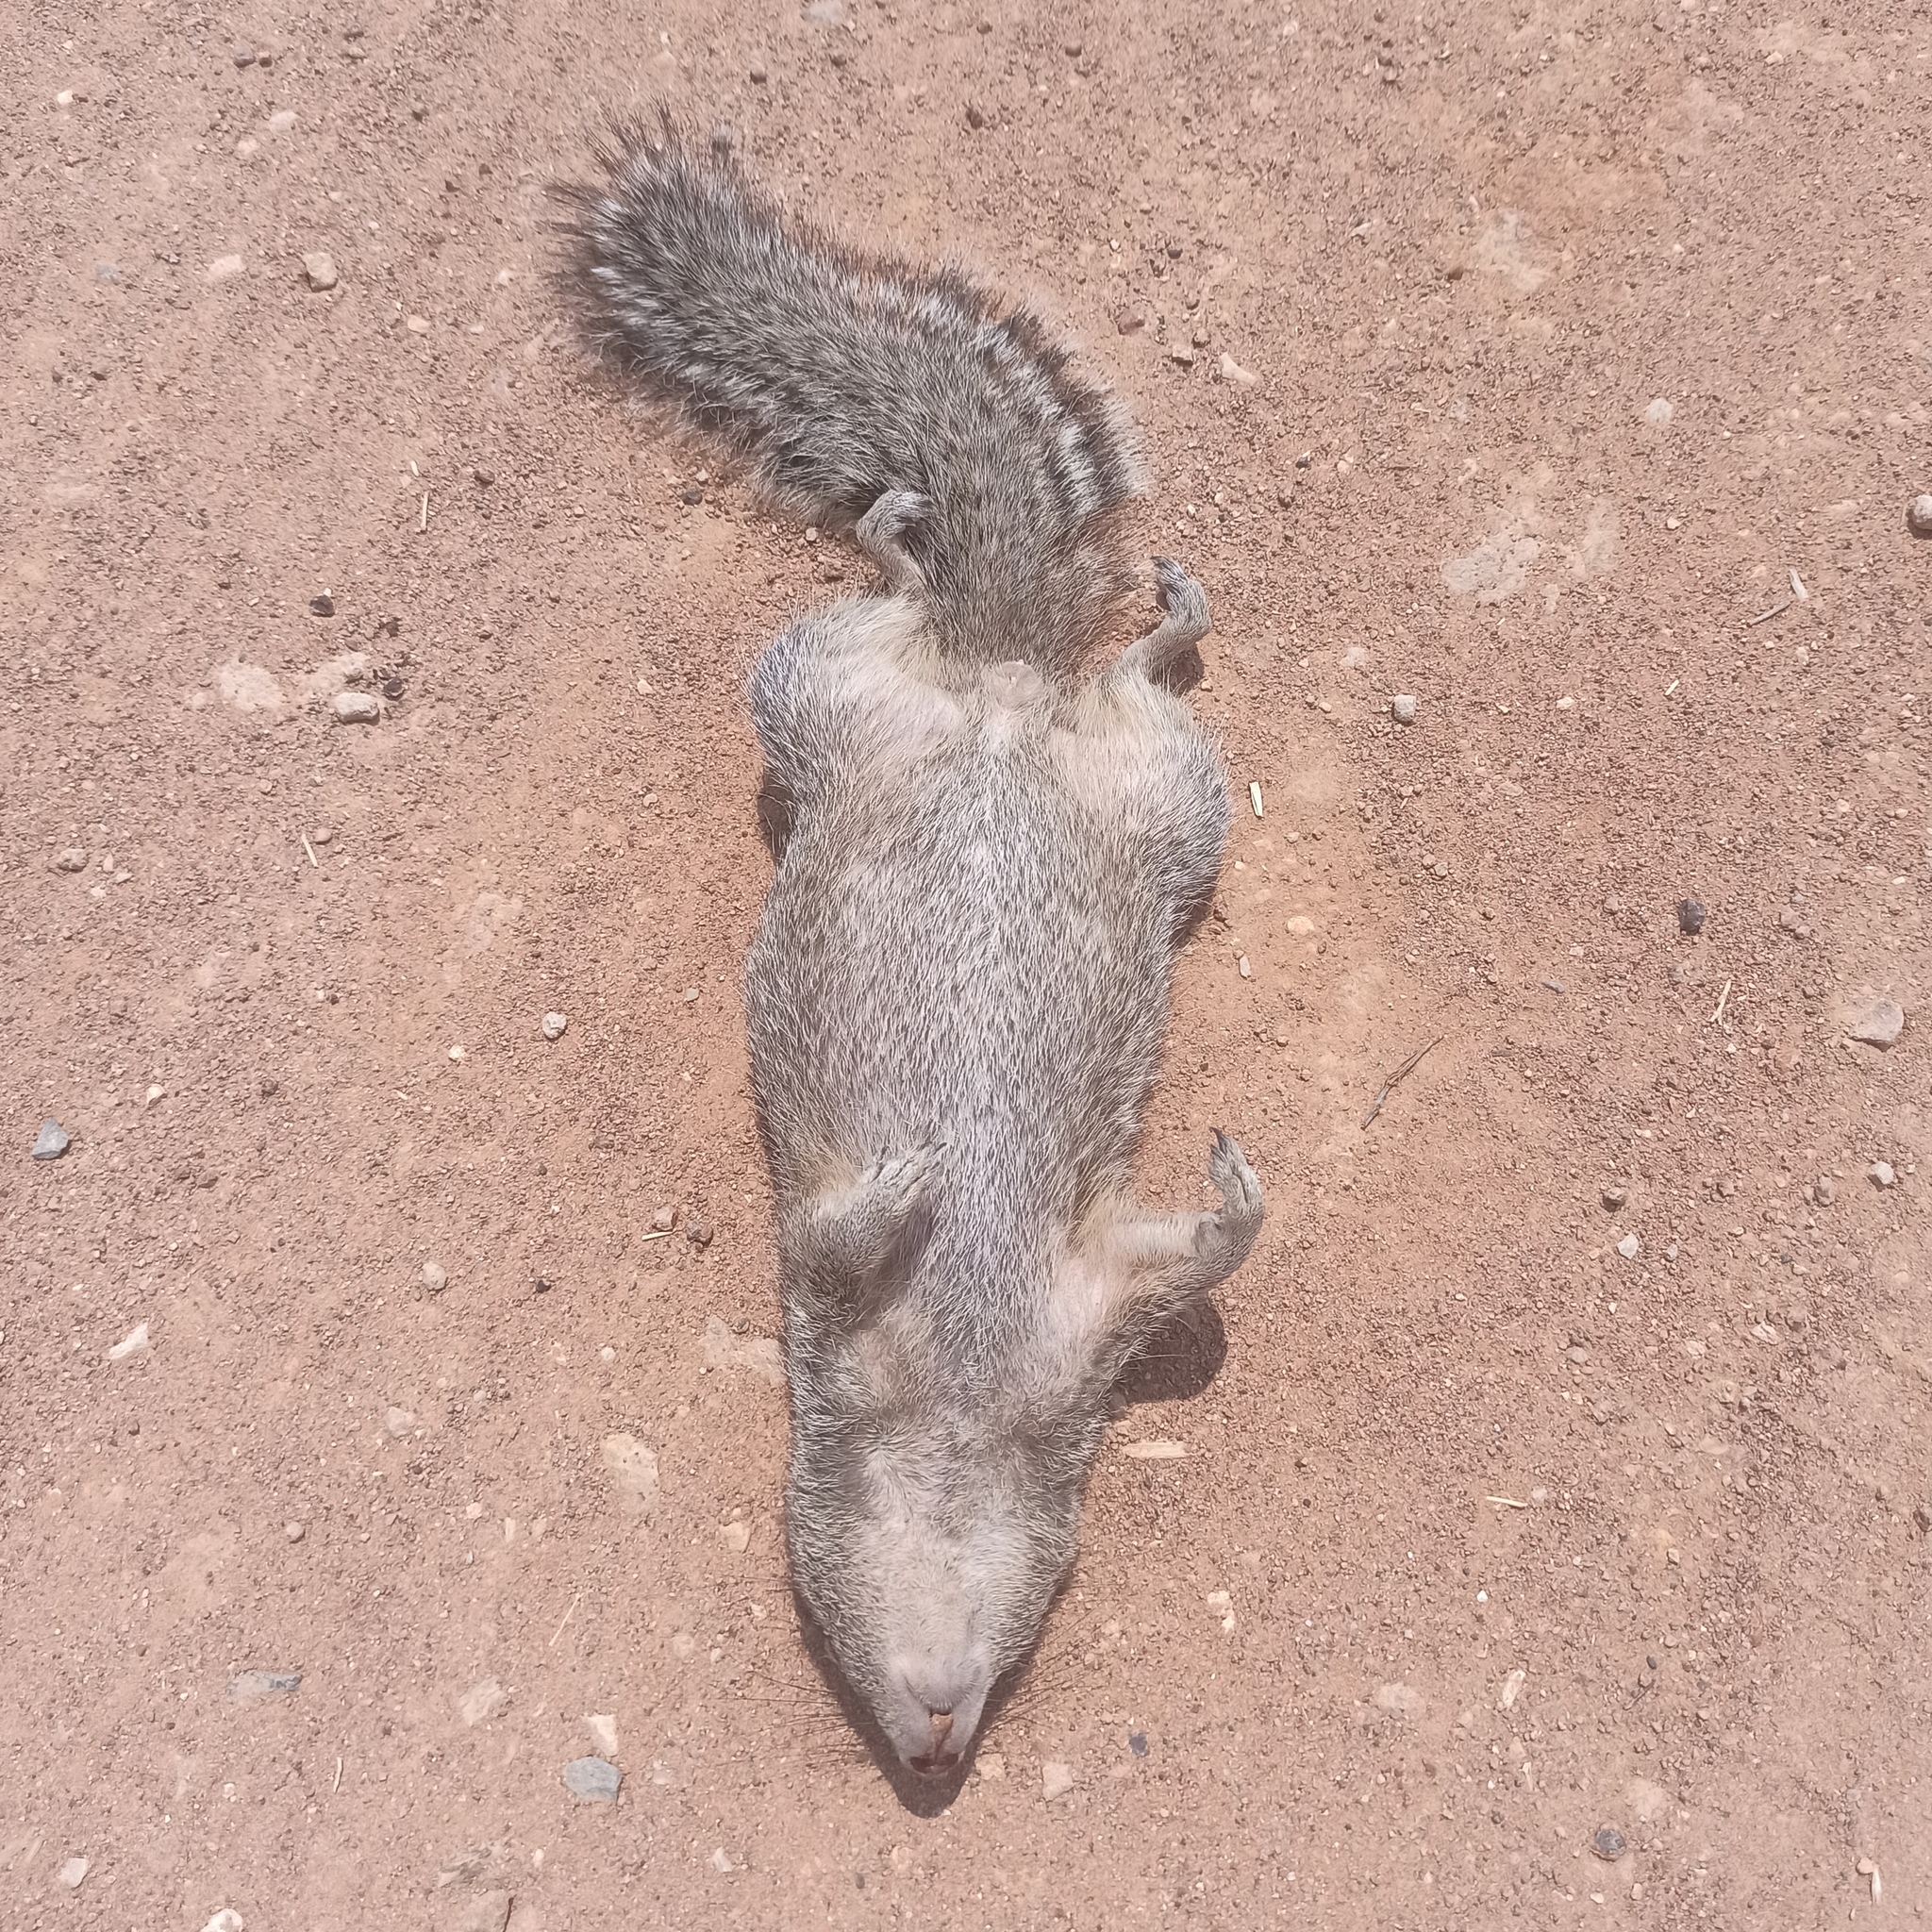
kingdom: Animalia
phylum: Chordata
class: Mammalia
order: Rodentia
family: Sciuridae
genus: Otospermophilus
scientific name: Otospermophilus variegatus
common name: Rock squirrel
